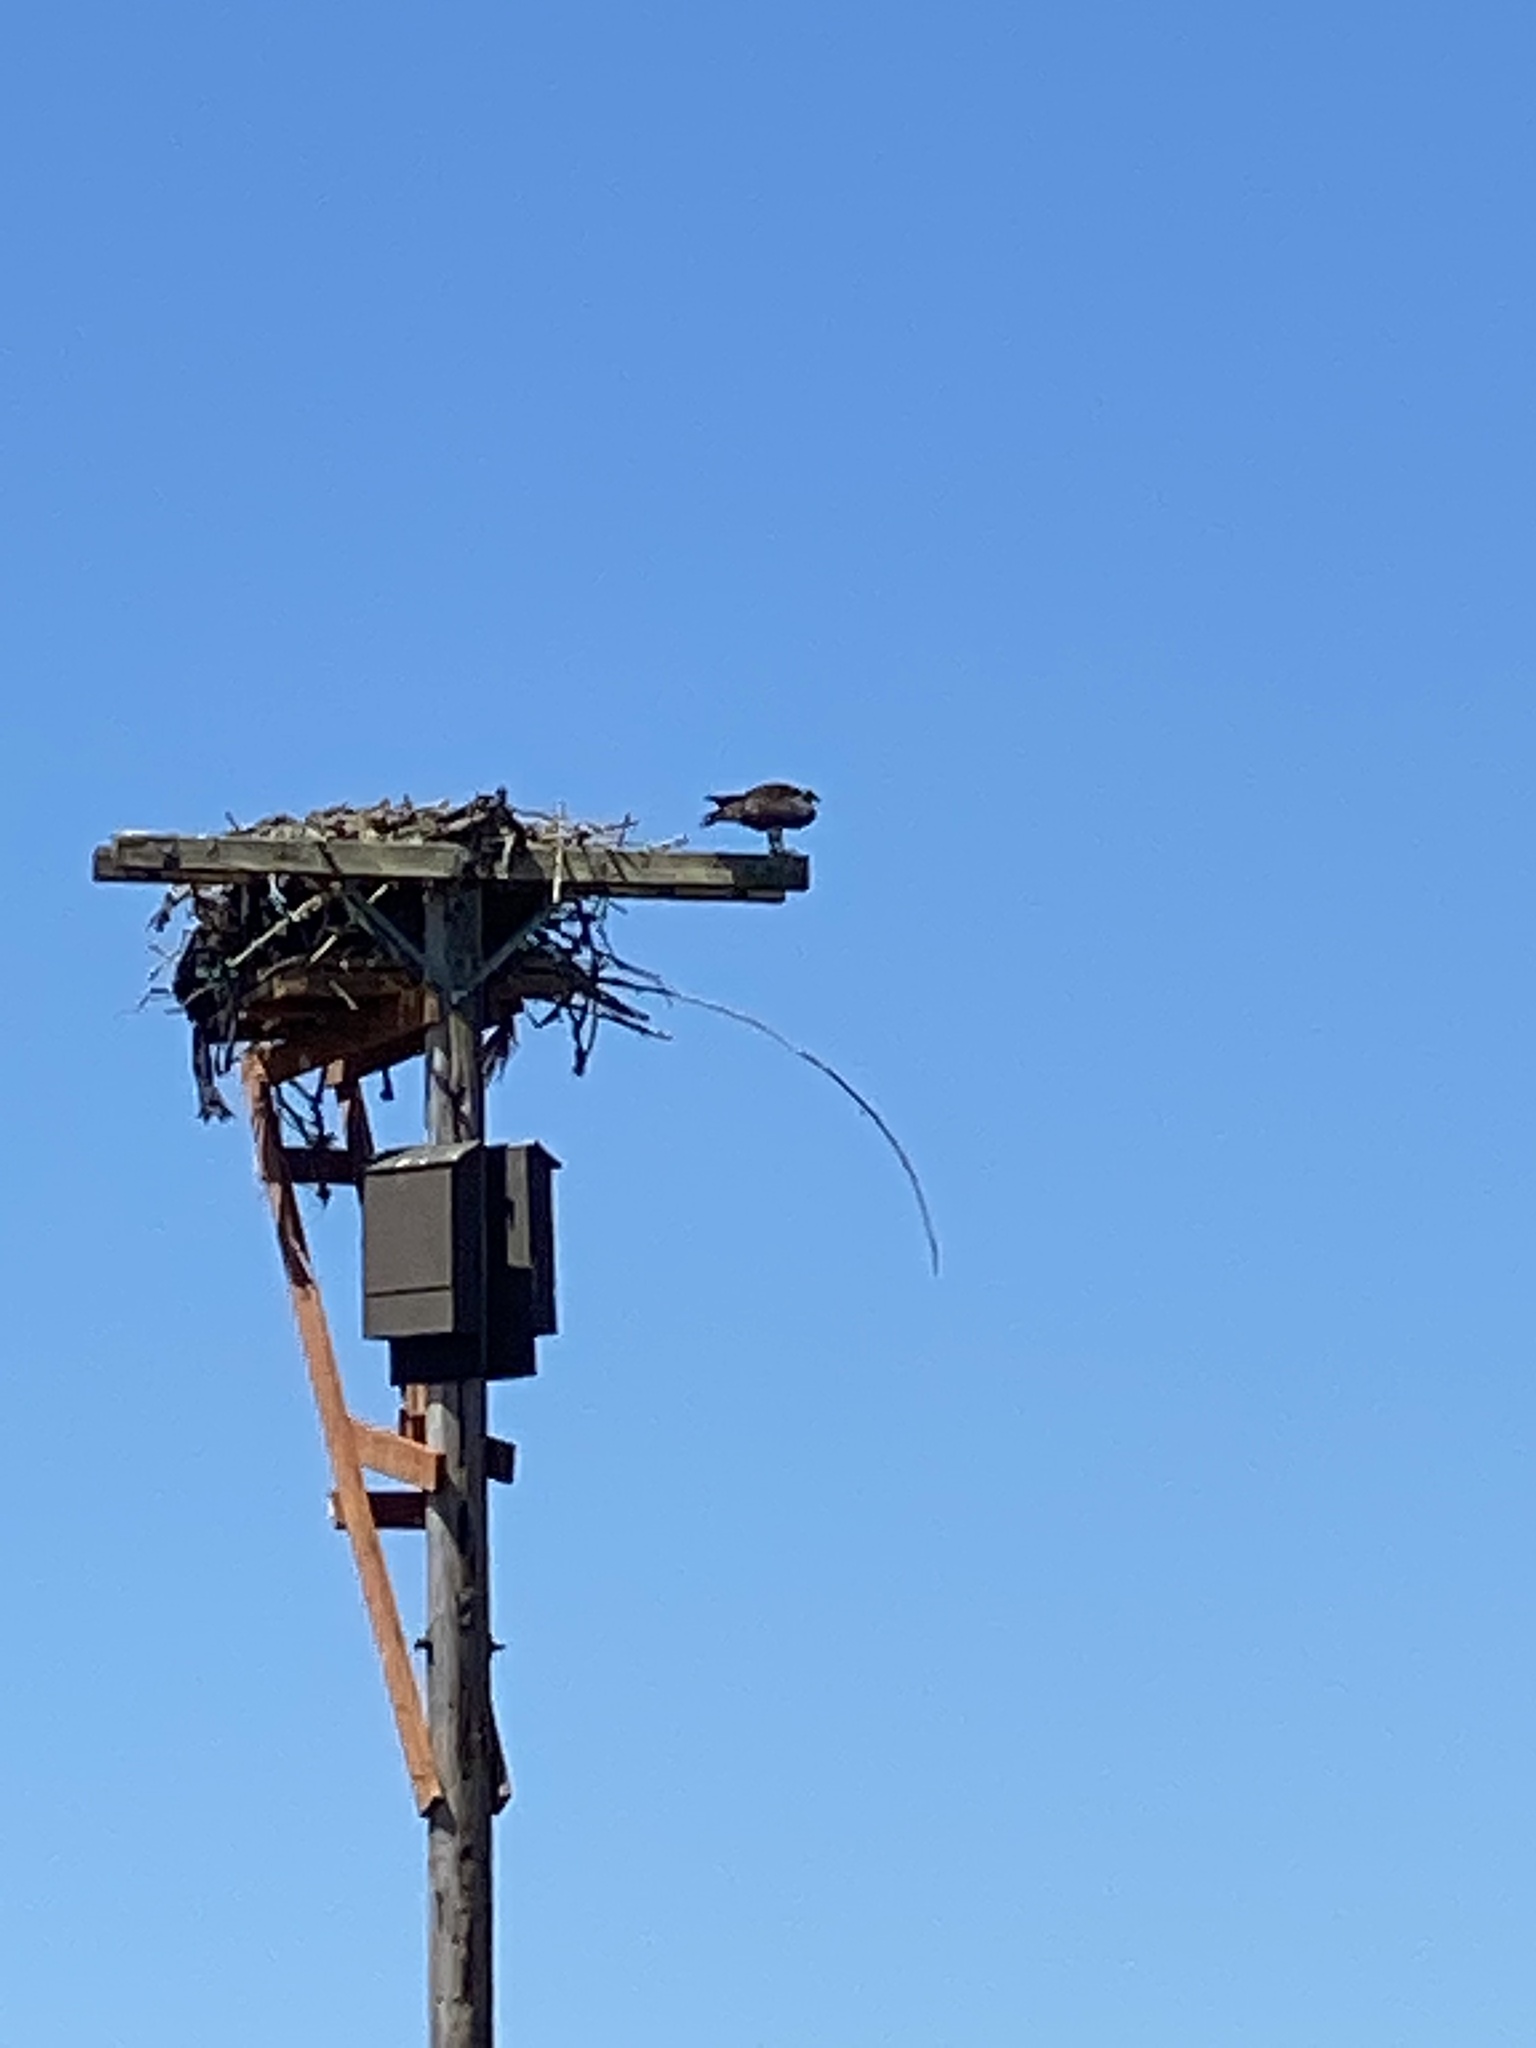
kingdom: Animalia
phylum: Chordata
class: Aves
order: Accipitriformes
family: Pandionidae
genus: Pandion
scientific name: Pandion haliaetus
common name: Osprey
